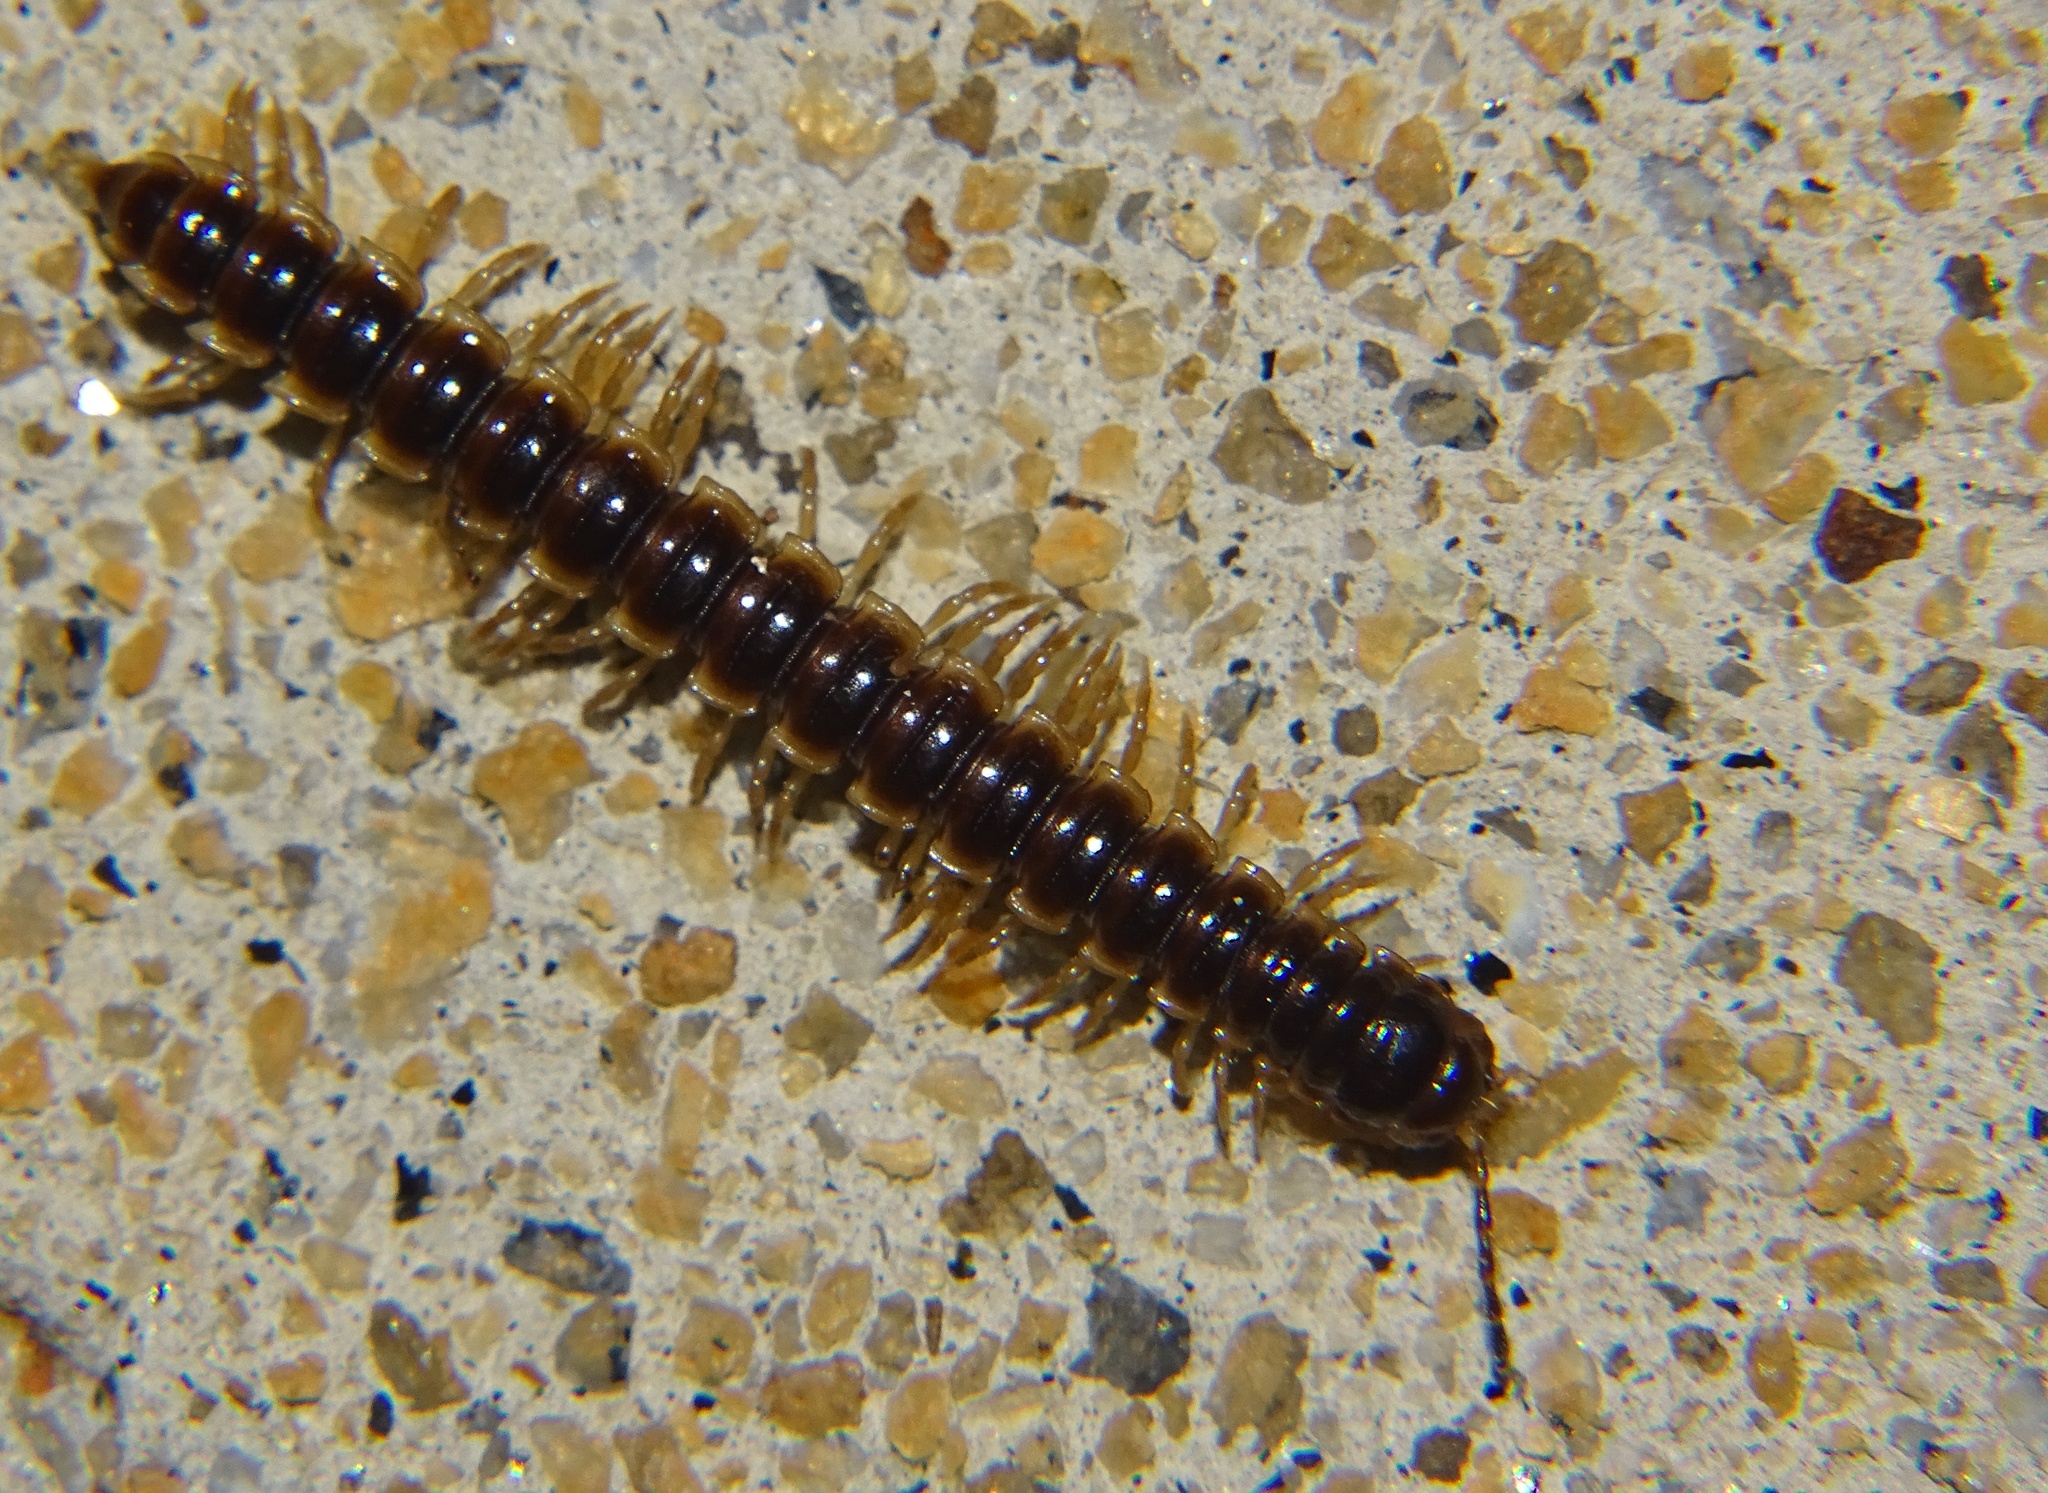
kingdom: Animalia
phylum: Arthropoda
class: Diplopoda
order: Polydesmida
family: Paradoxosomatidae
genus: Oxidus
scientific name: Oxidus gracilis
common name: Greenhouse millipede
